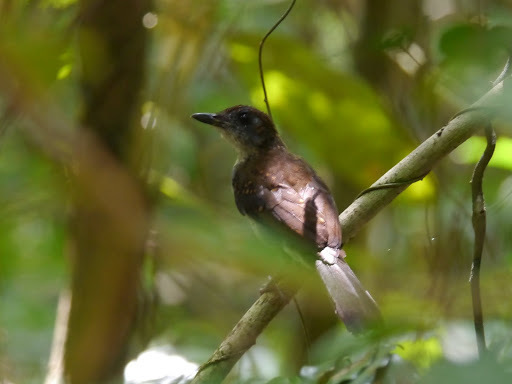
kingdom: Animalia
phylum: Chordata
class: Aves
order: Passeriformes
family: Turdidae
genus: Alethe
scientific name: Alethe diademata
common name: Fire-crested alethe
